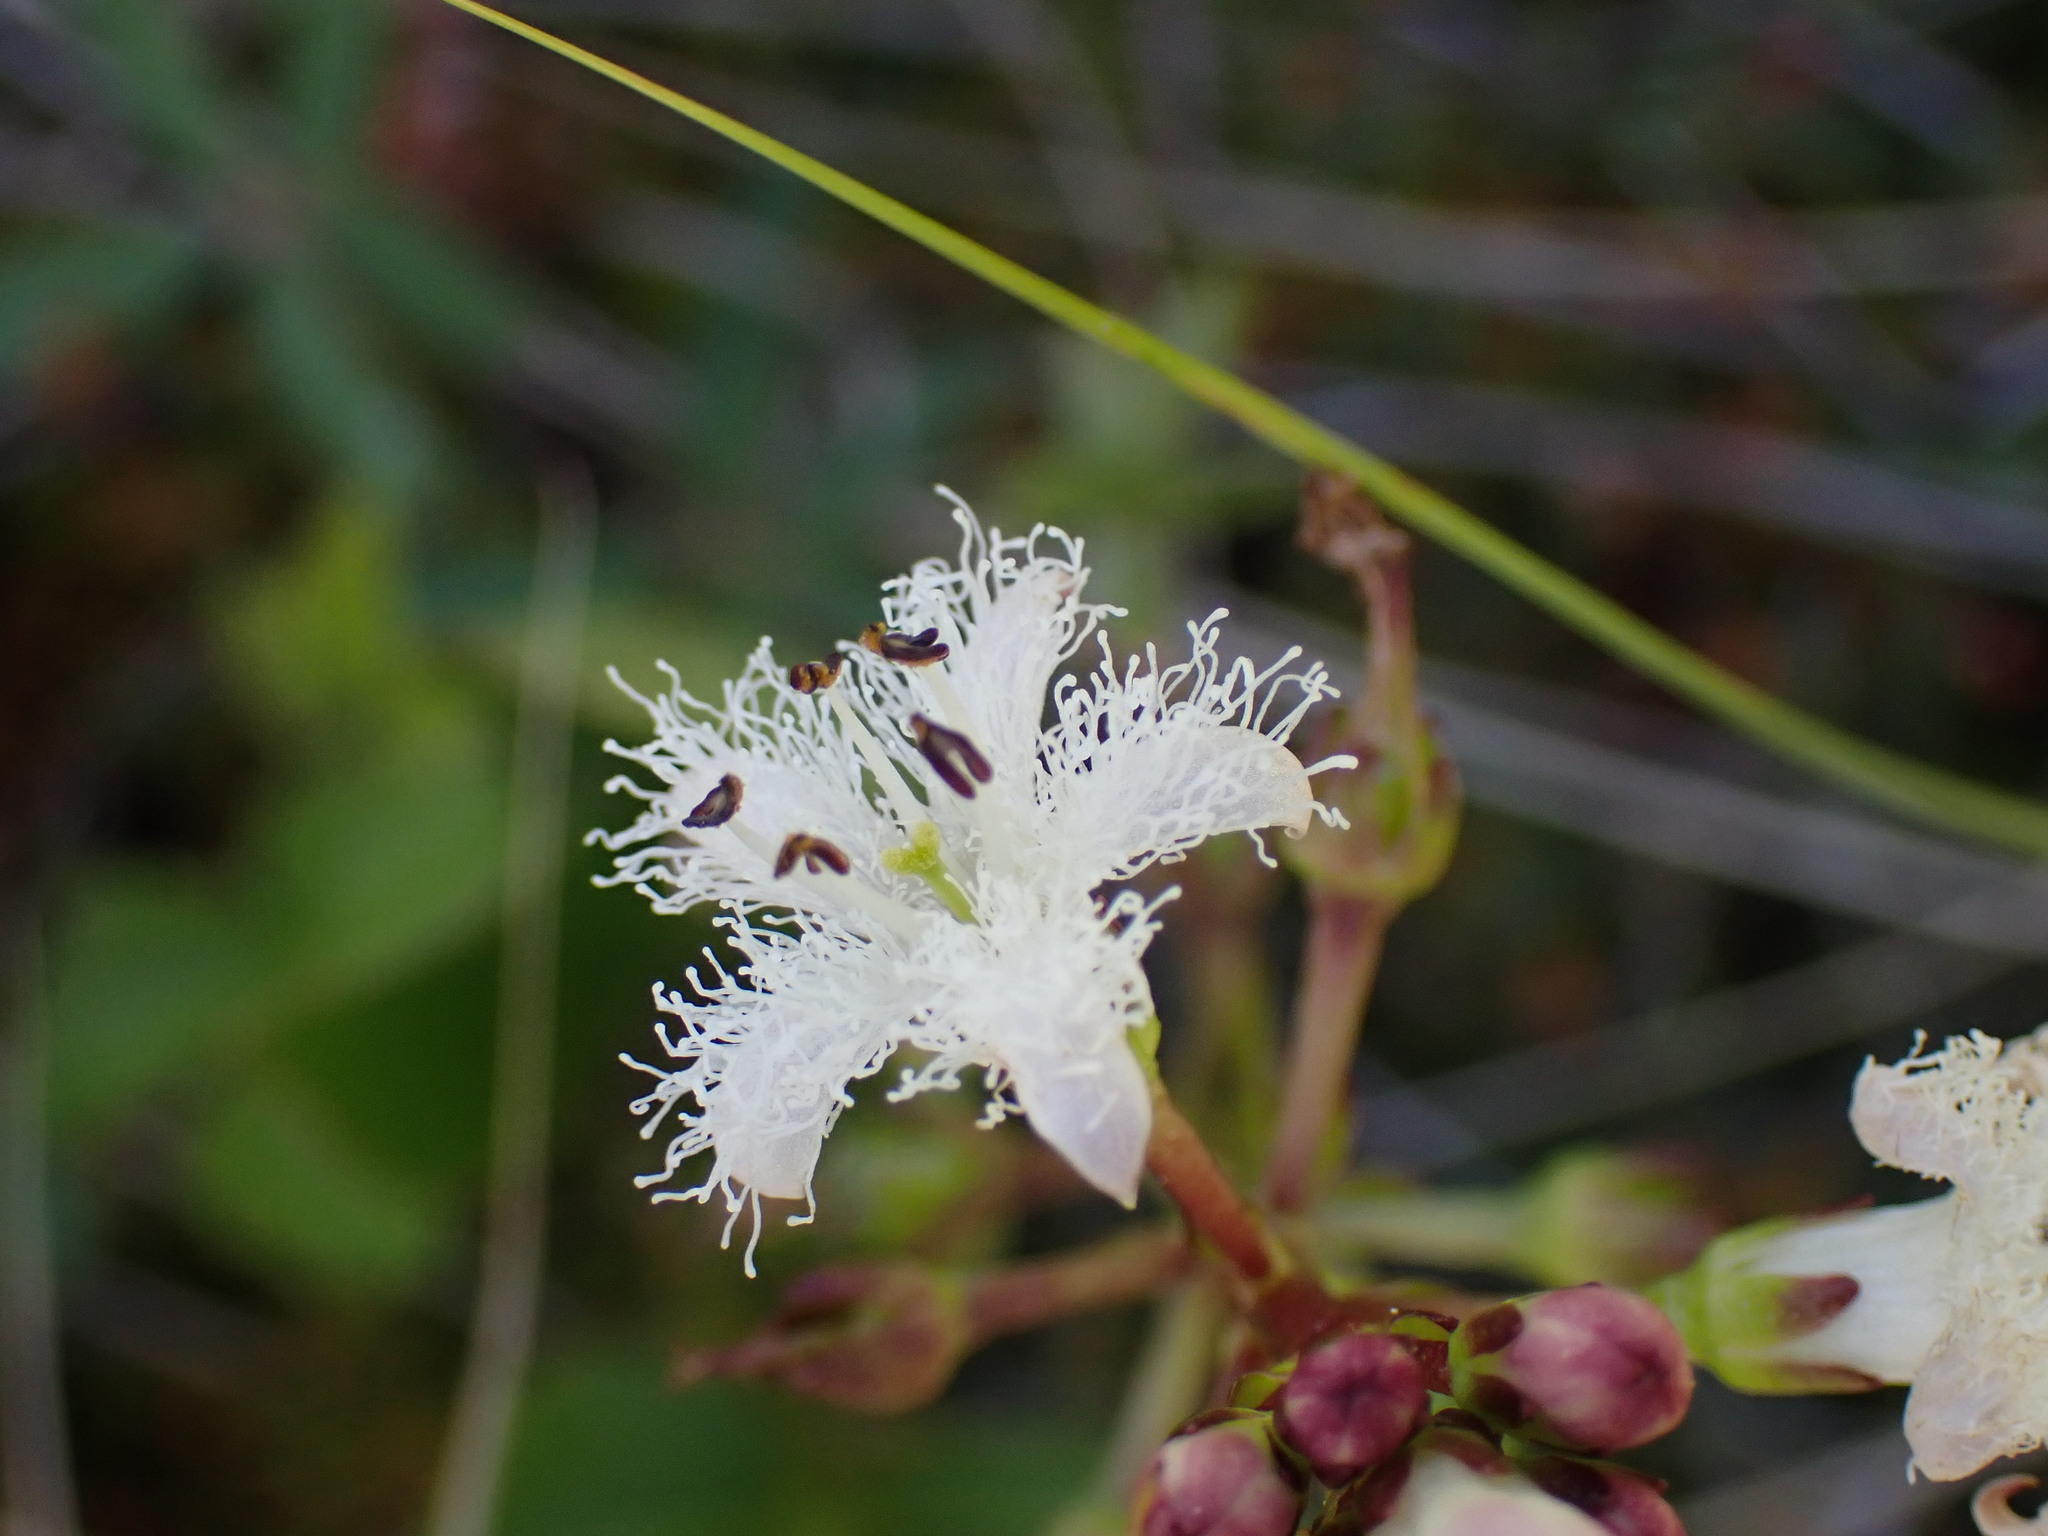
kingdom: Plantae
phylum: Tracheophyta
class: Magnoliopsida
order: Asterales
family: Menyanthaceae
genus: Menyanthes
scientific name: Menyanthes trifoliata
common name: Bogbean
